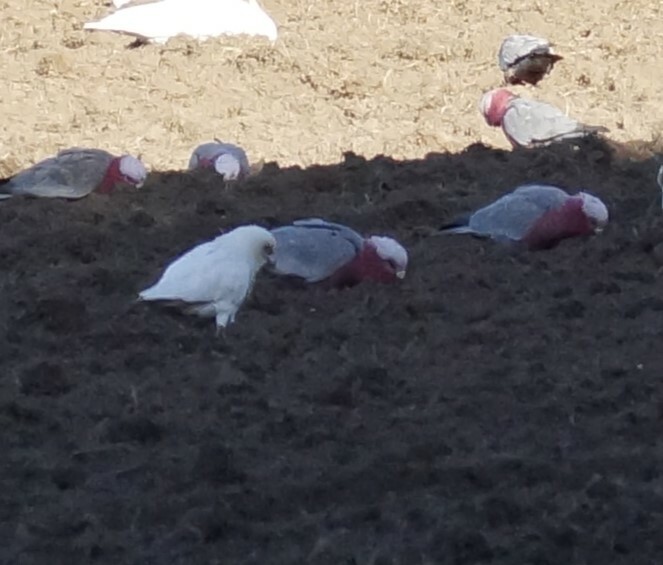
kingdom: Animalia
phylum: Chordata
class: Aves
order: Psittaciformes
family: Psittacidae
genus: Eolophus
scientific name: Eolophus roseicapilla
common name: Galah
